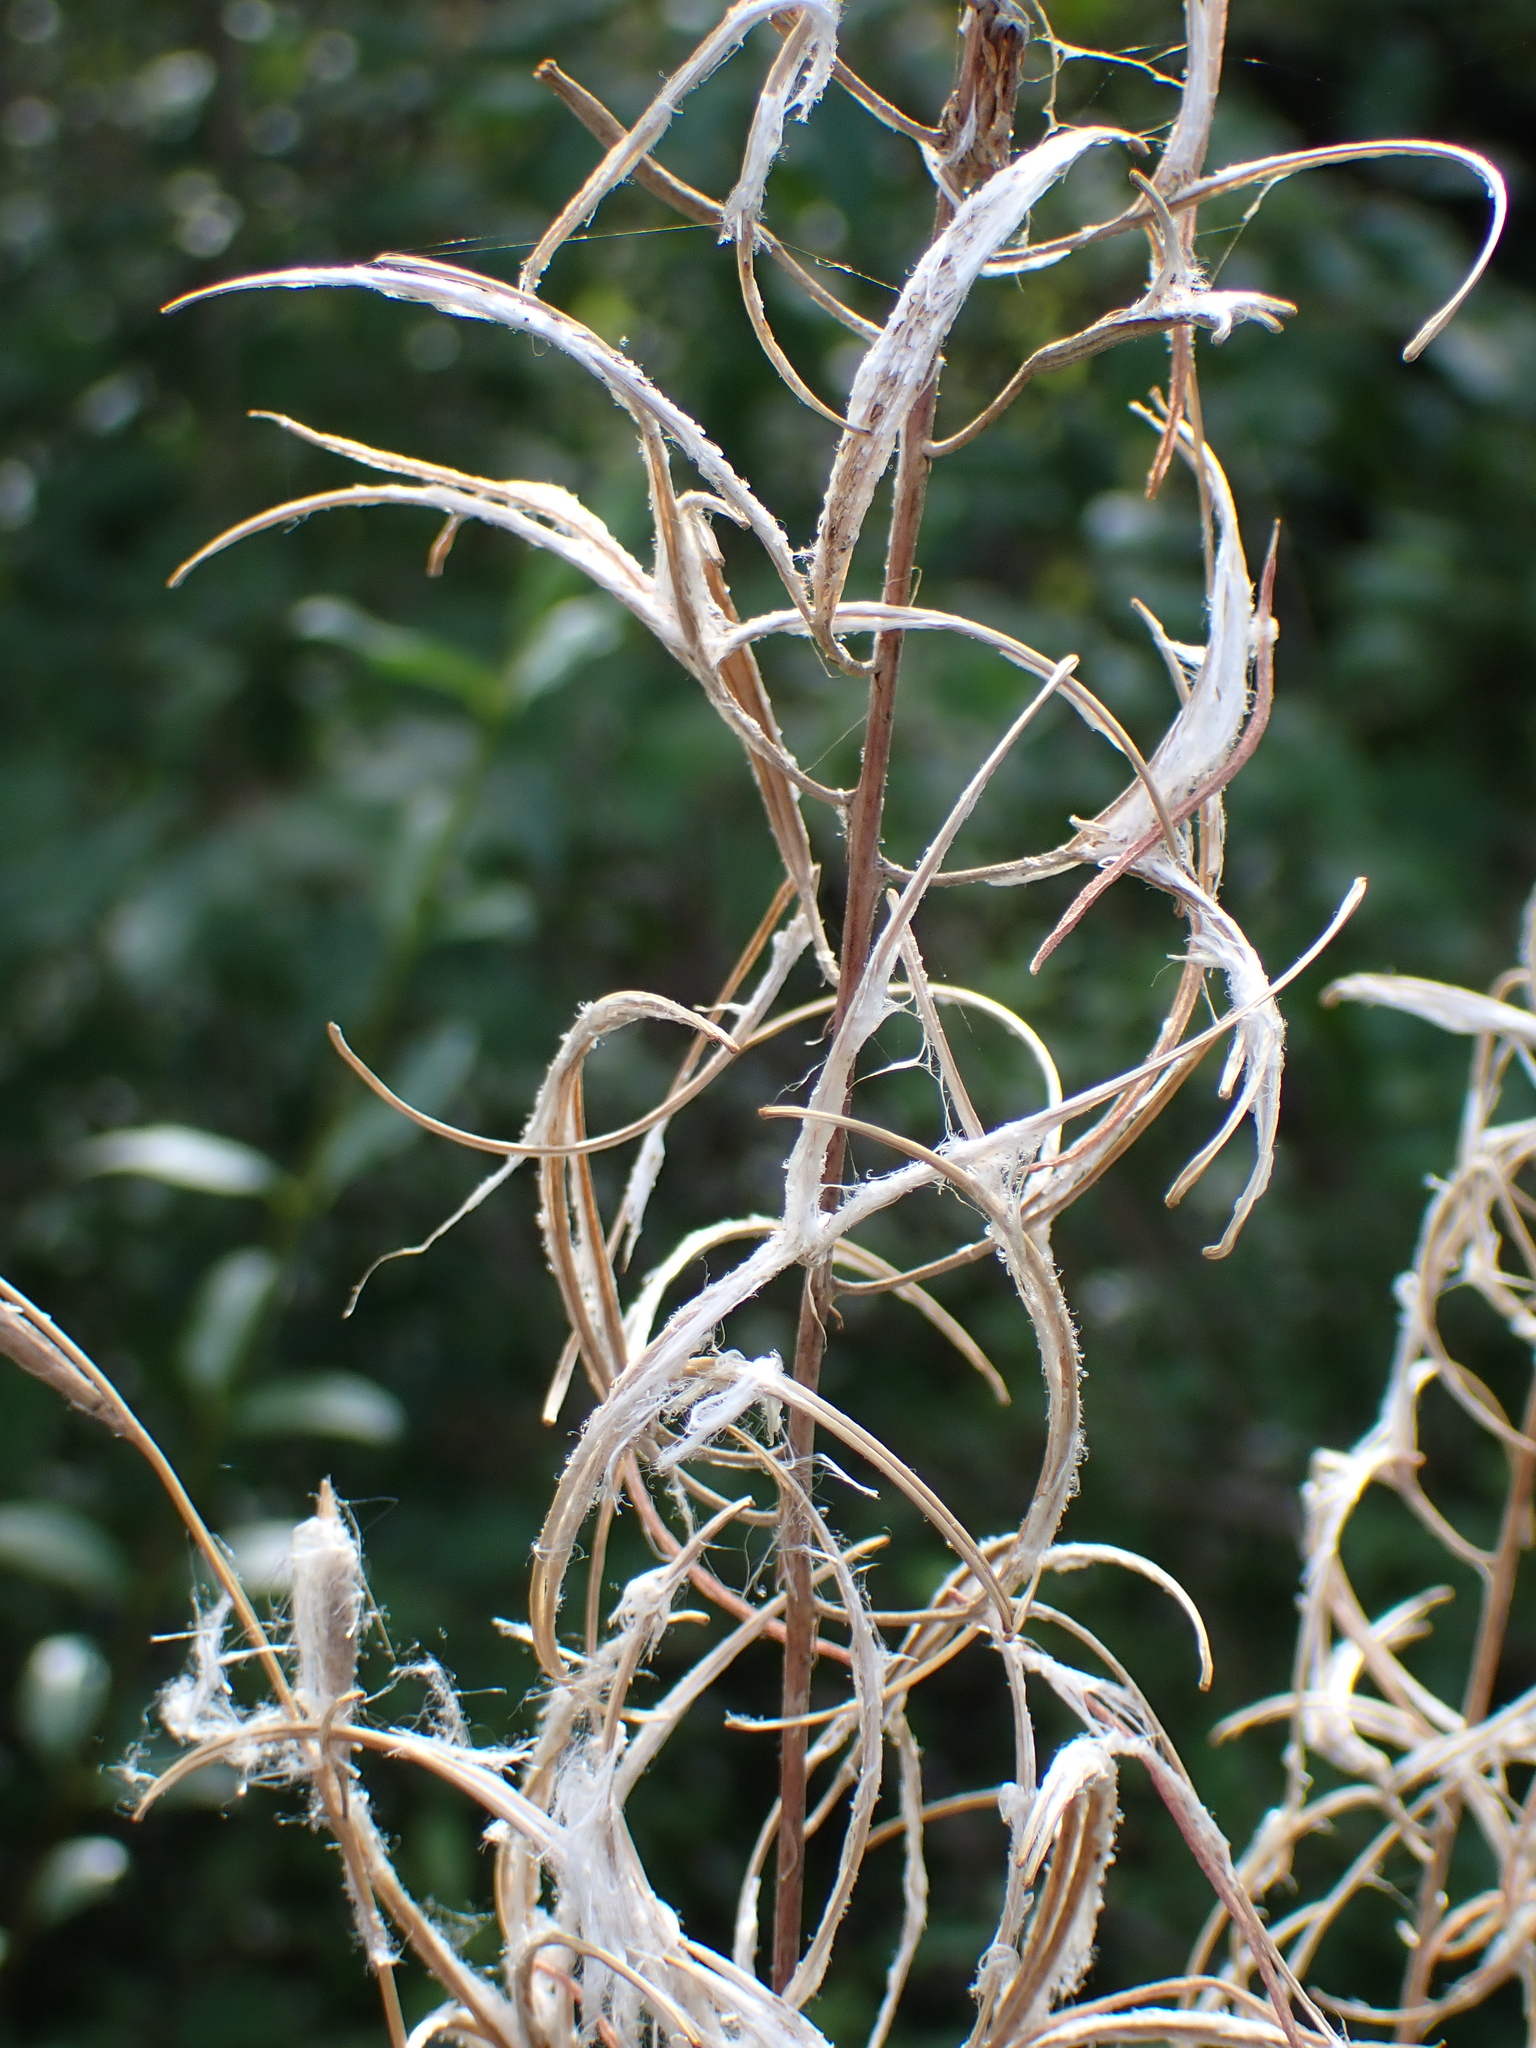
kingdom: Plantae
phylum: Tracheophyta
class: Magnoliopsida
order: Myrtales
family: Onagraceae
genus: Chamaenerion
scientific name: Chamaenerion angustifolium
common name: Fireweed
